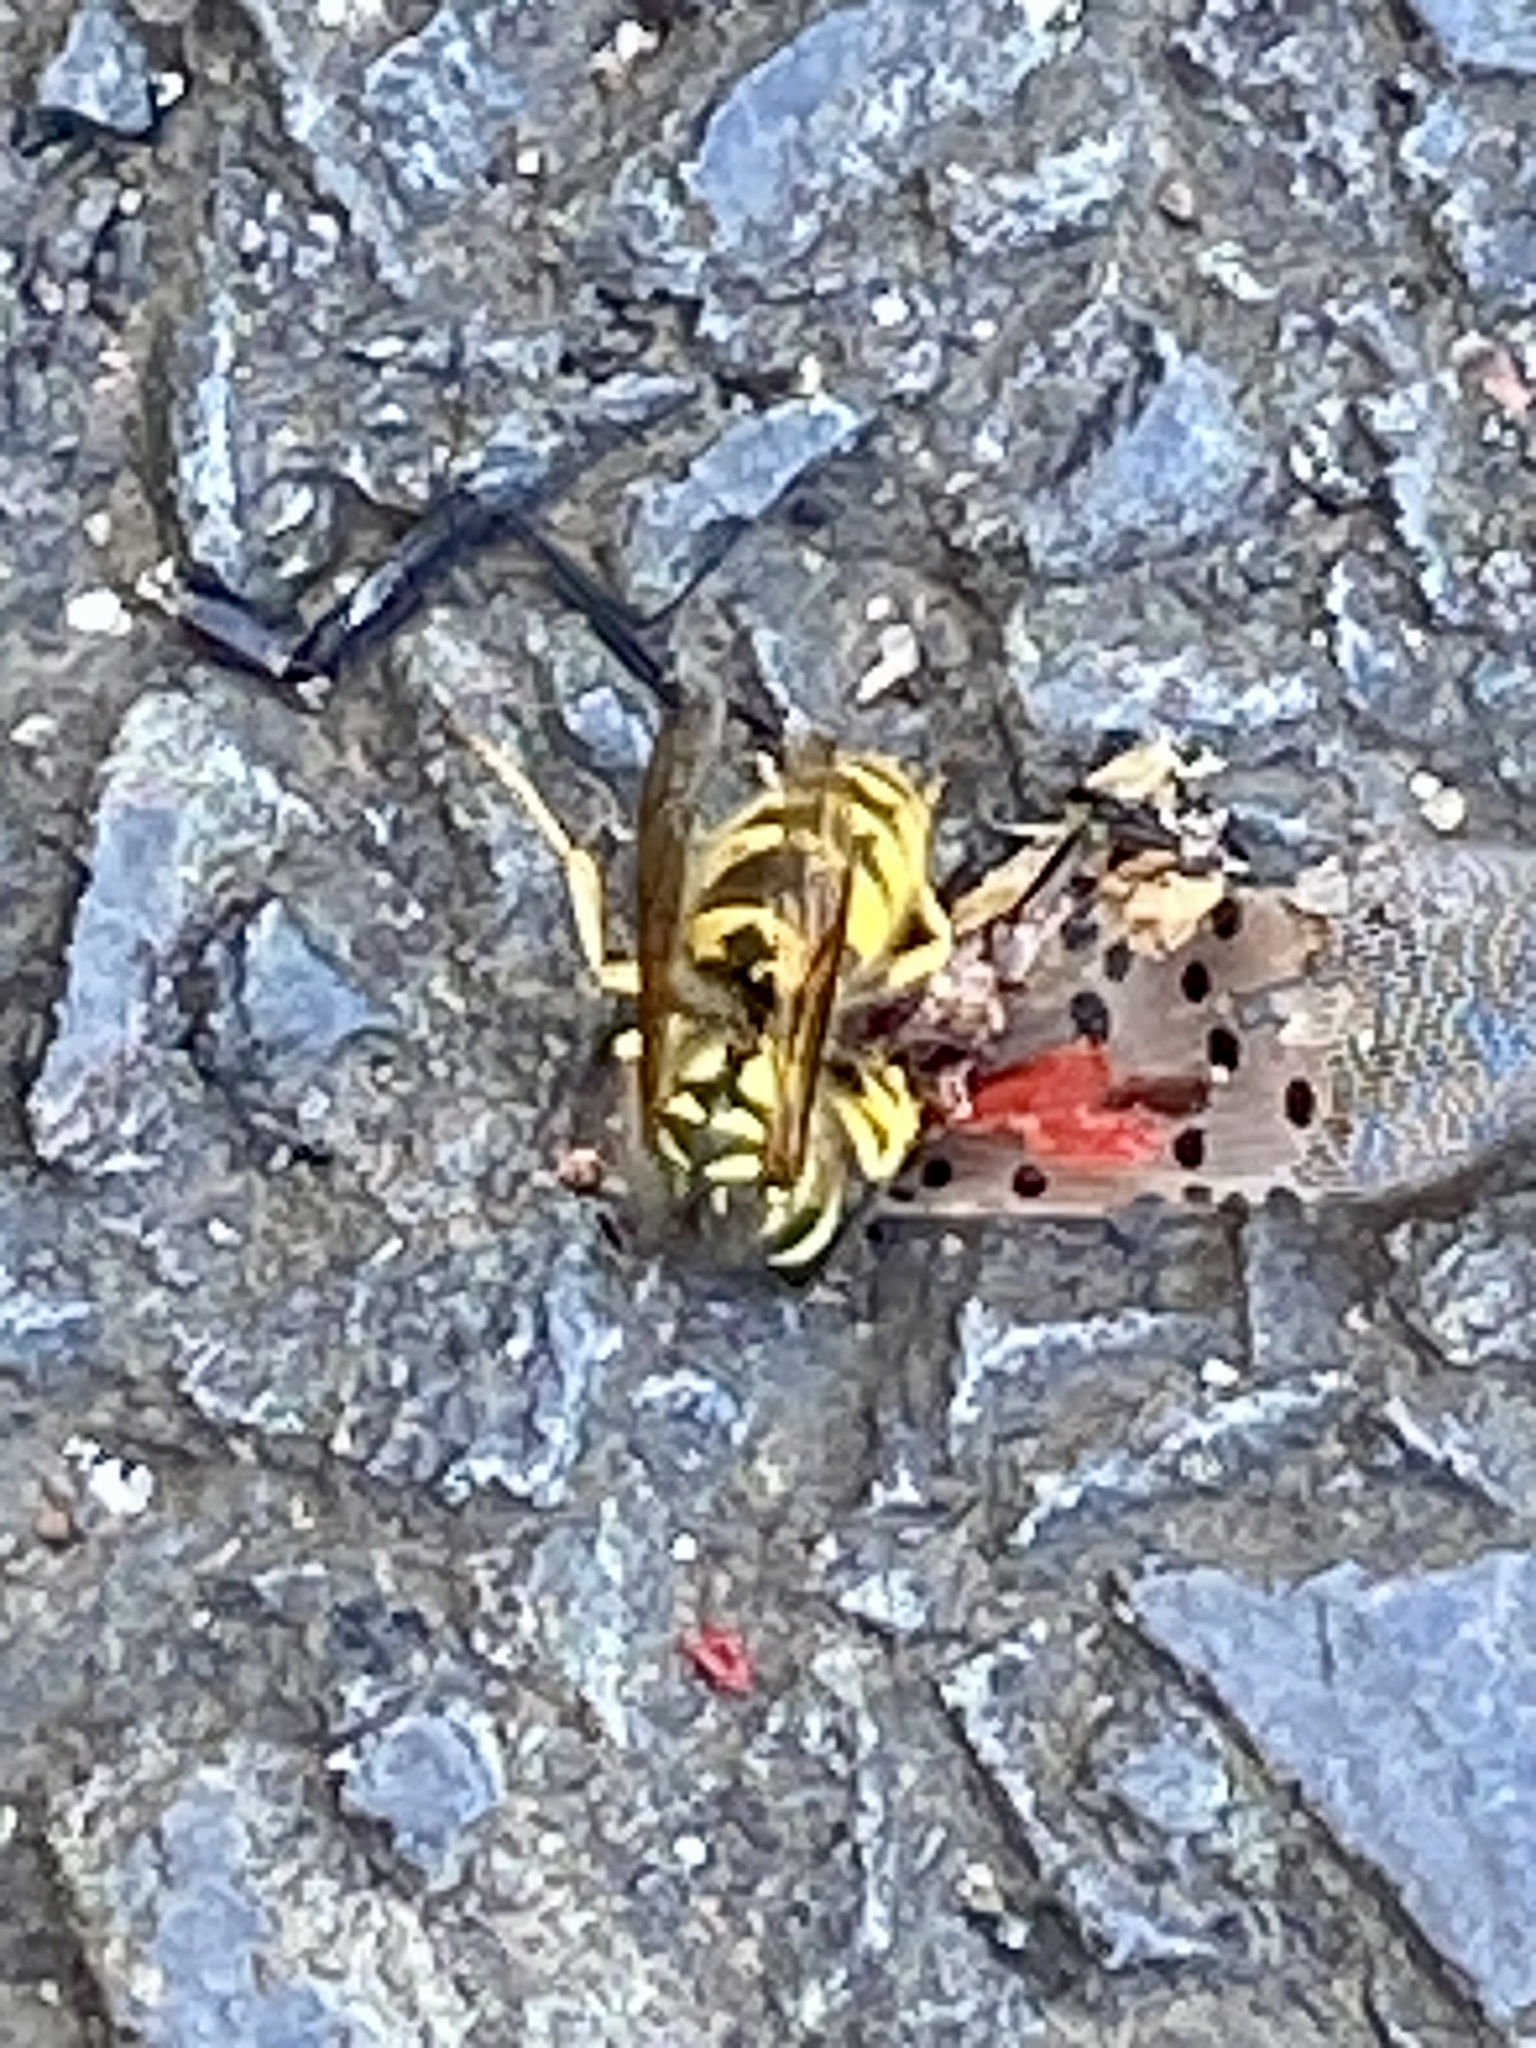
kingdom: Animalia
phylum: Arthropoda
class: Insecta
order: Hymenoptera
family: Vespidae
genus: Vespula
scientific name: Vespula flavopilosa
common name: Downy yellowjacket
